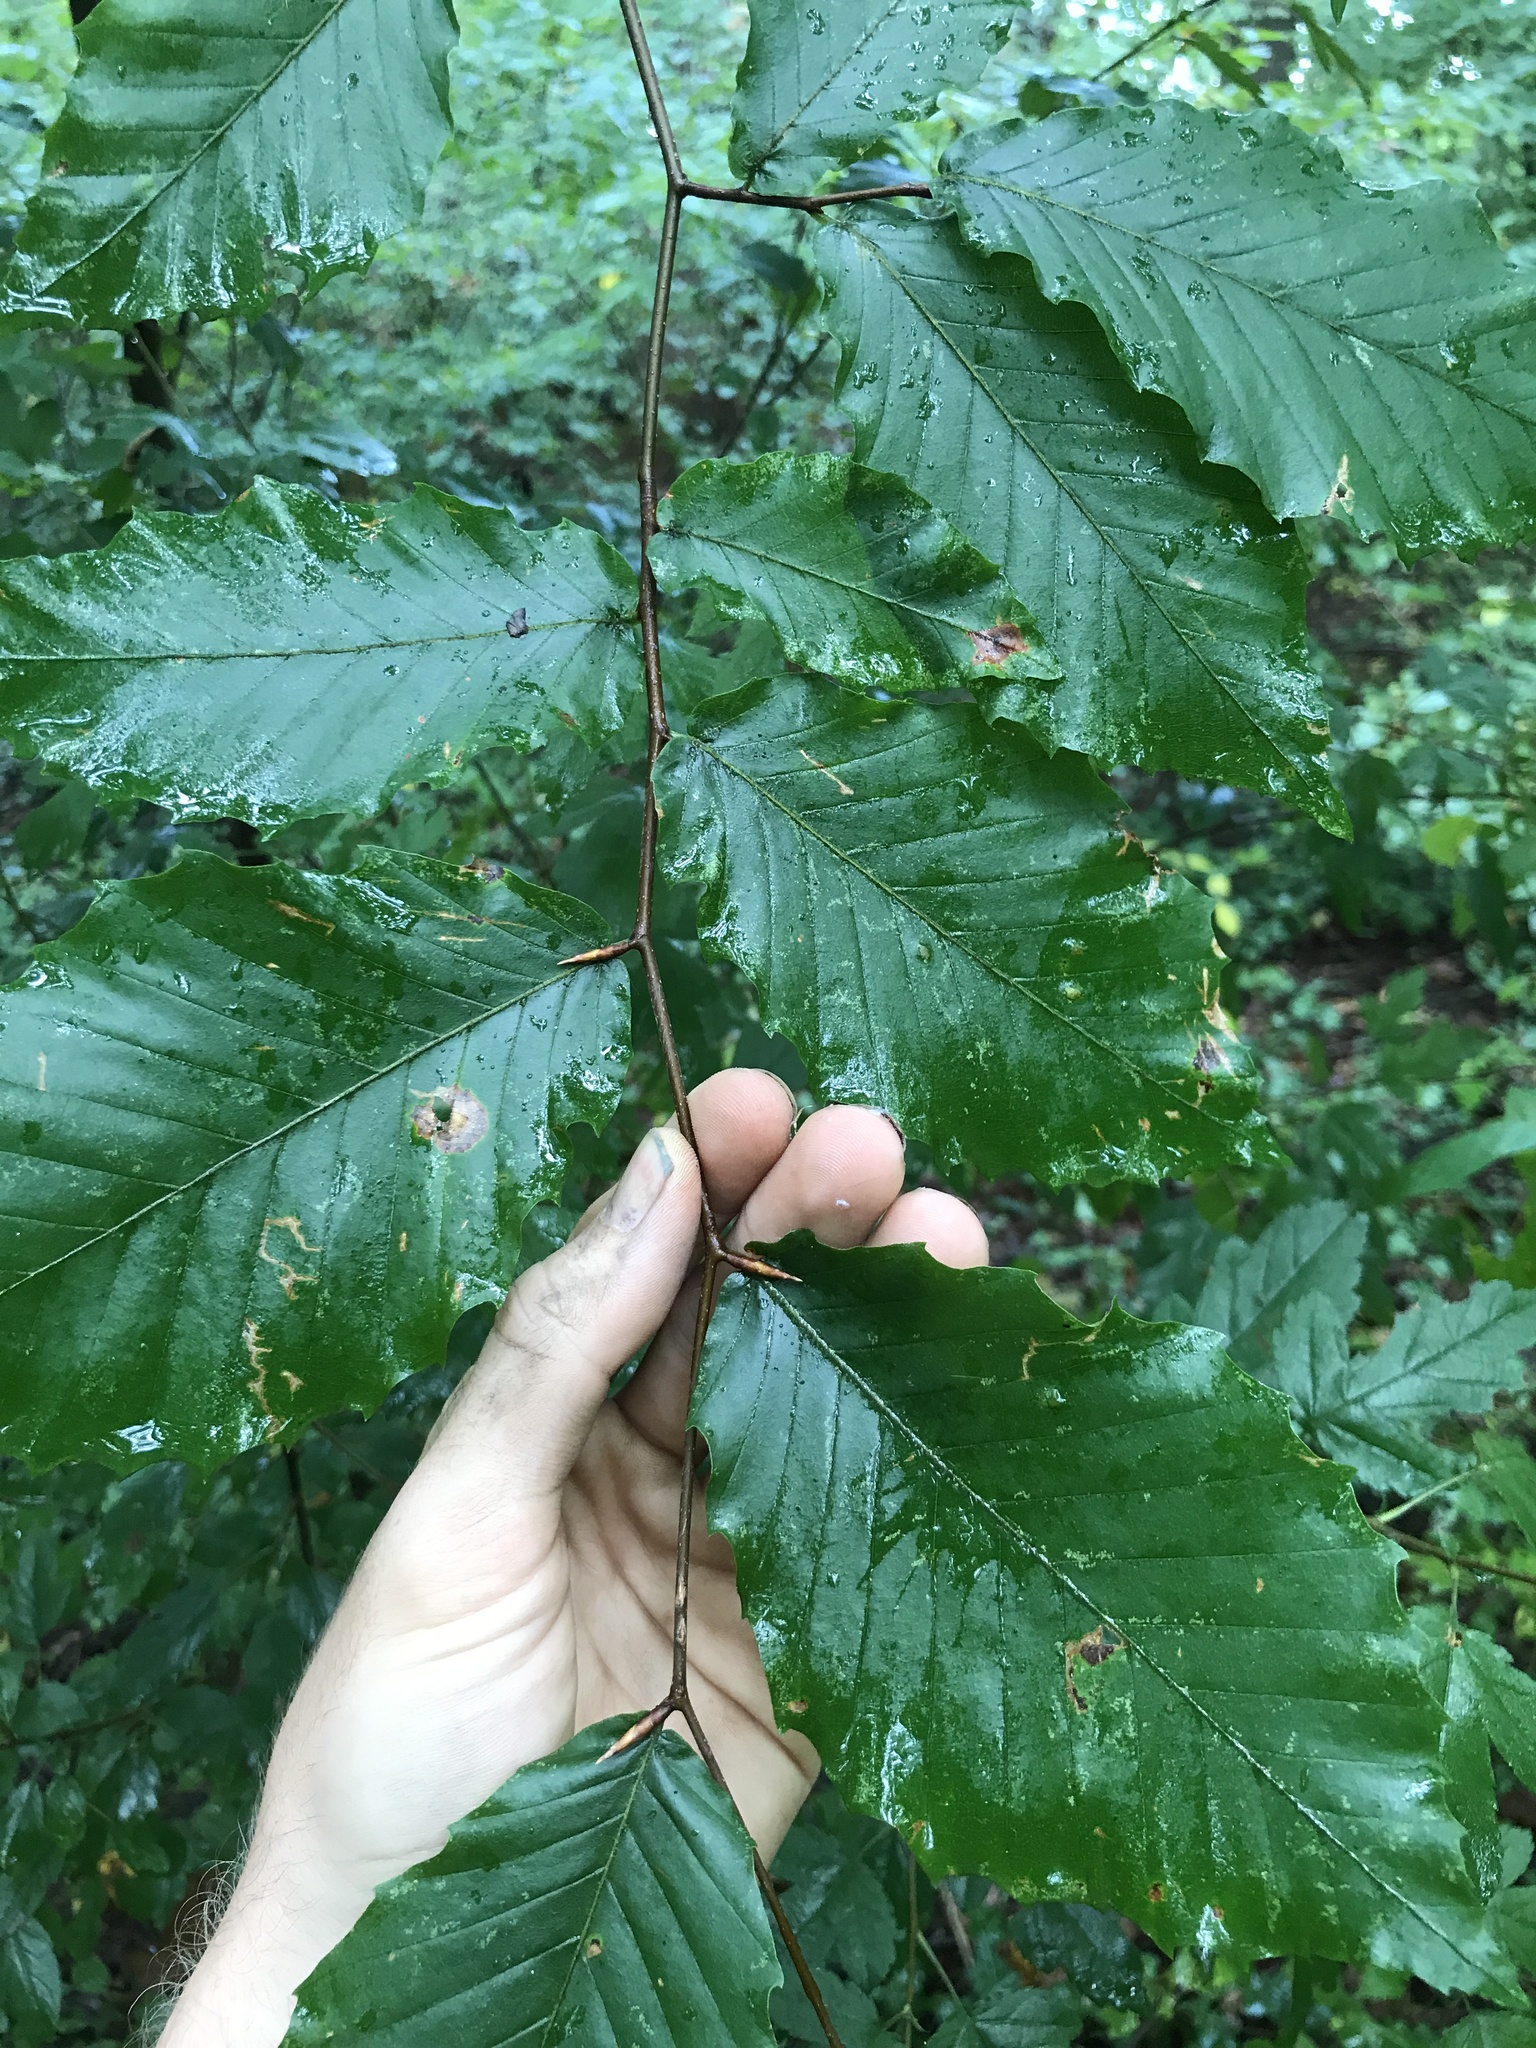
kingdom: Plantae
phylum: Tracheophyta
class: Magnoliopsida
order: Fagales
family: Fagaceae
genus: Fagus
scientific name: Fagus grandifolia
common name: American beech
